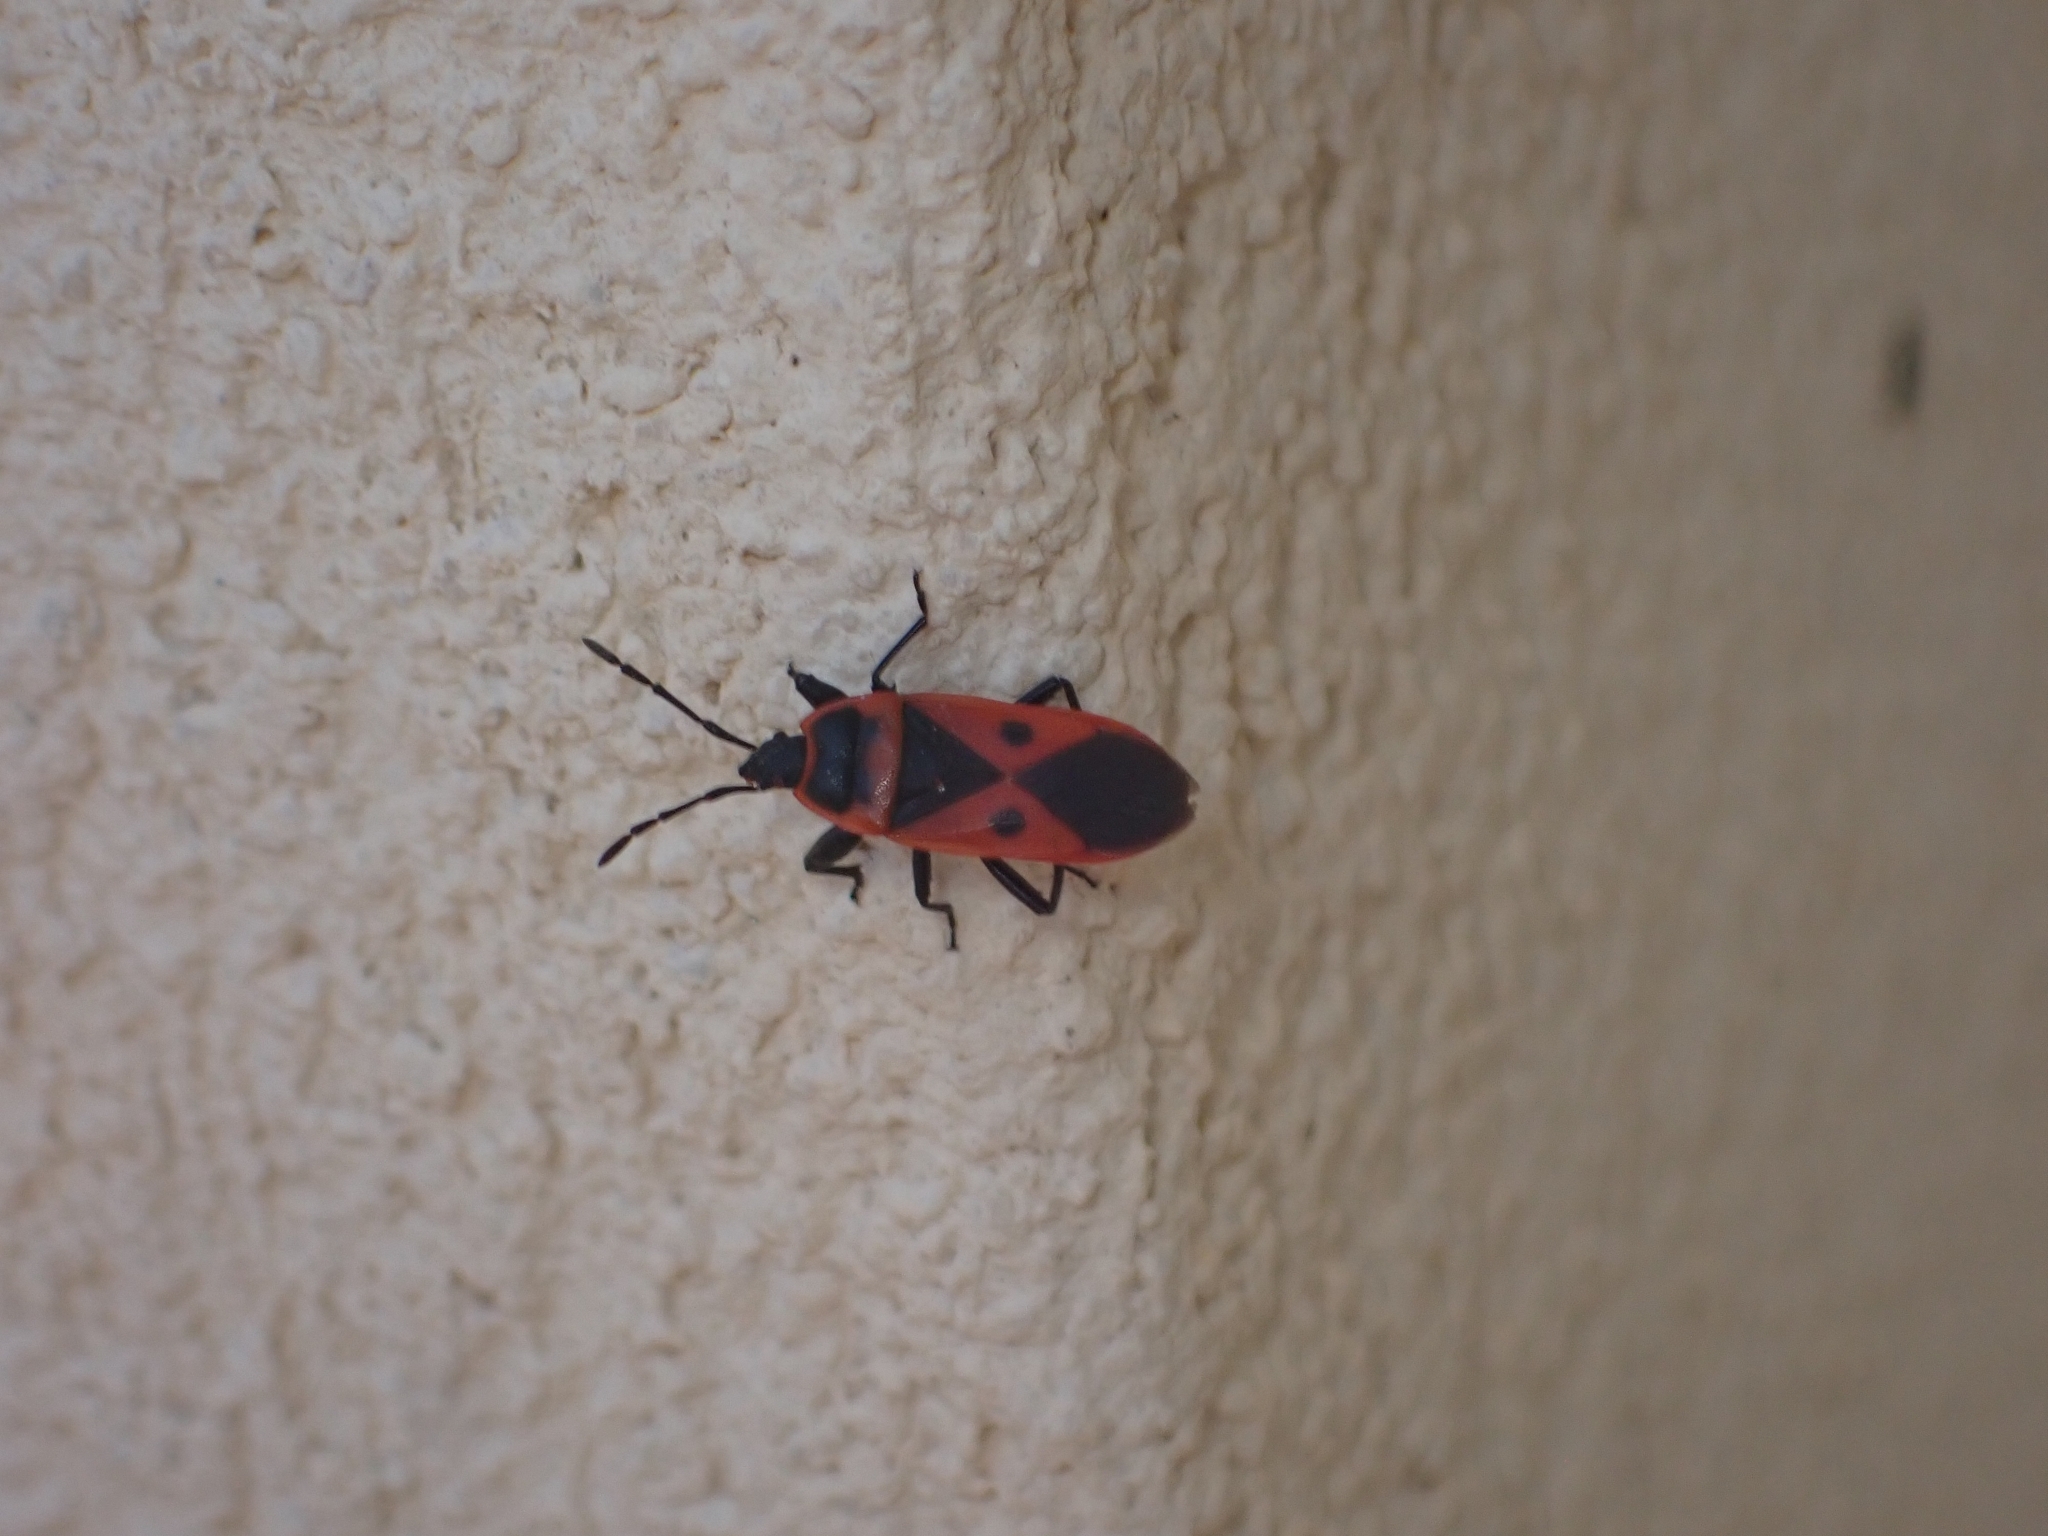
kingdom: Animalia
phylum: Arthropoda
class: Insecta
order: Hemiptera
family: Pyrrhocoridae
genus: Scantius
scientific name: Scantius aegyptius
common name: Red bug
